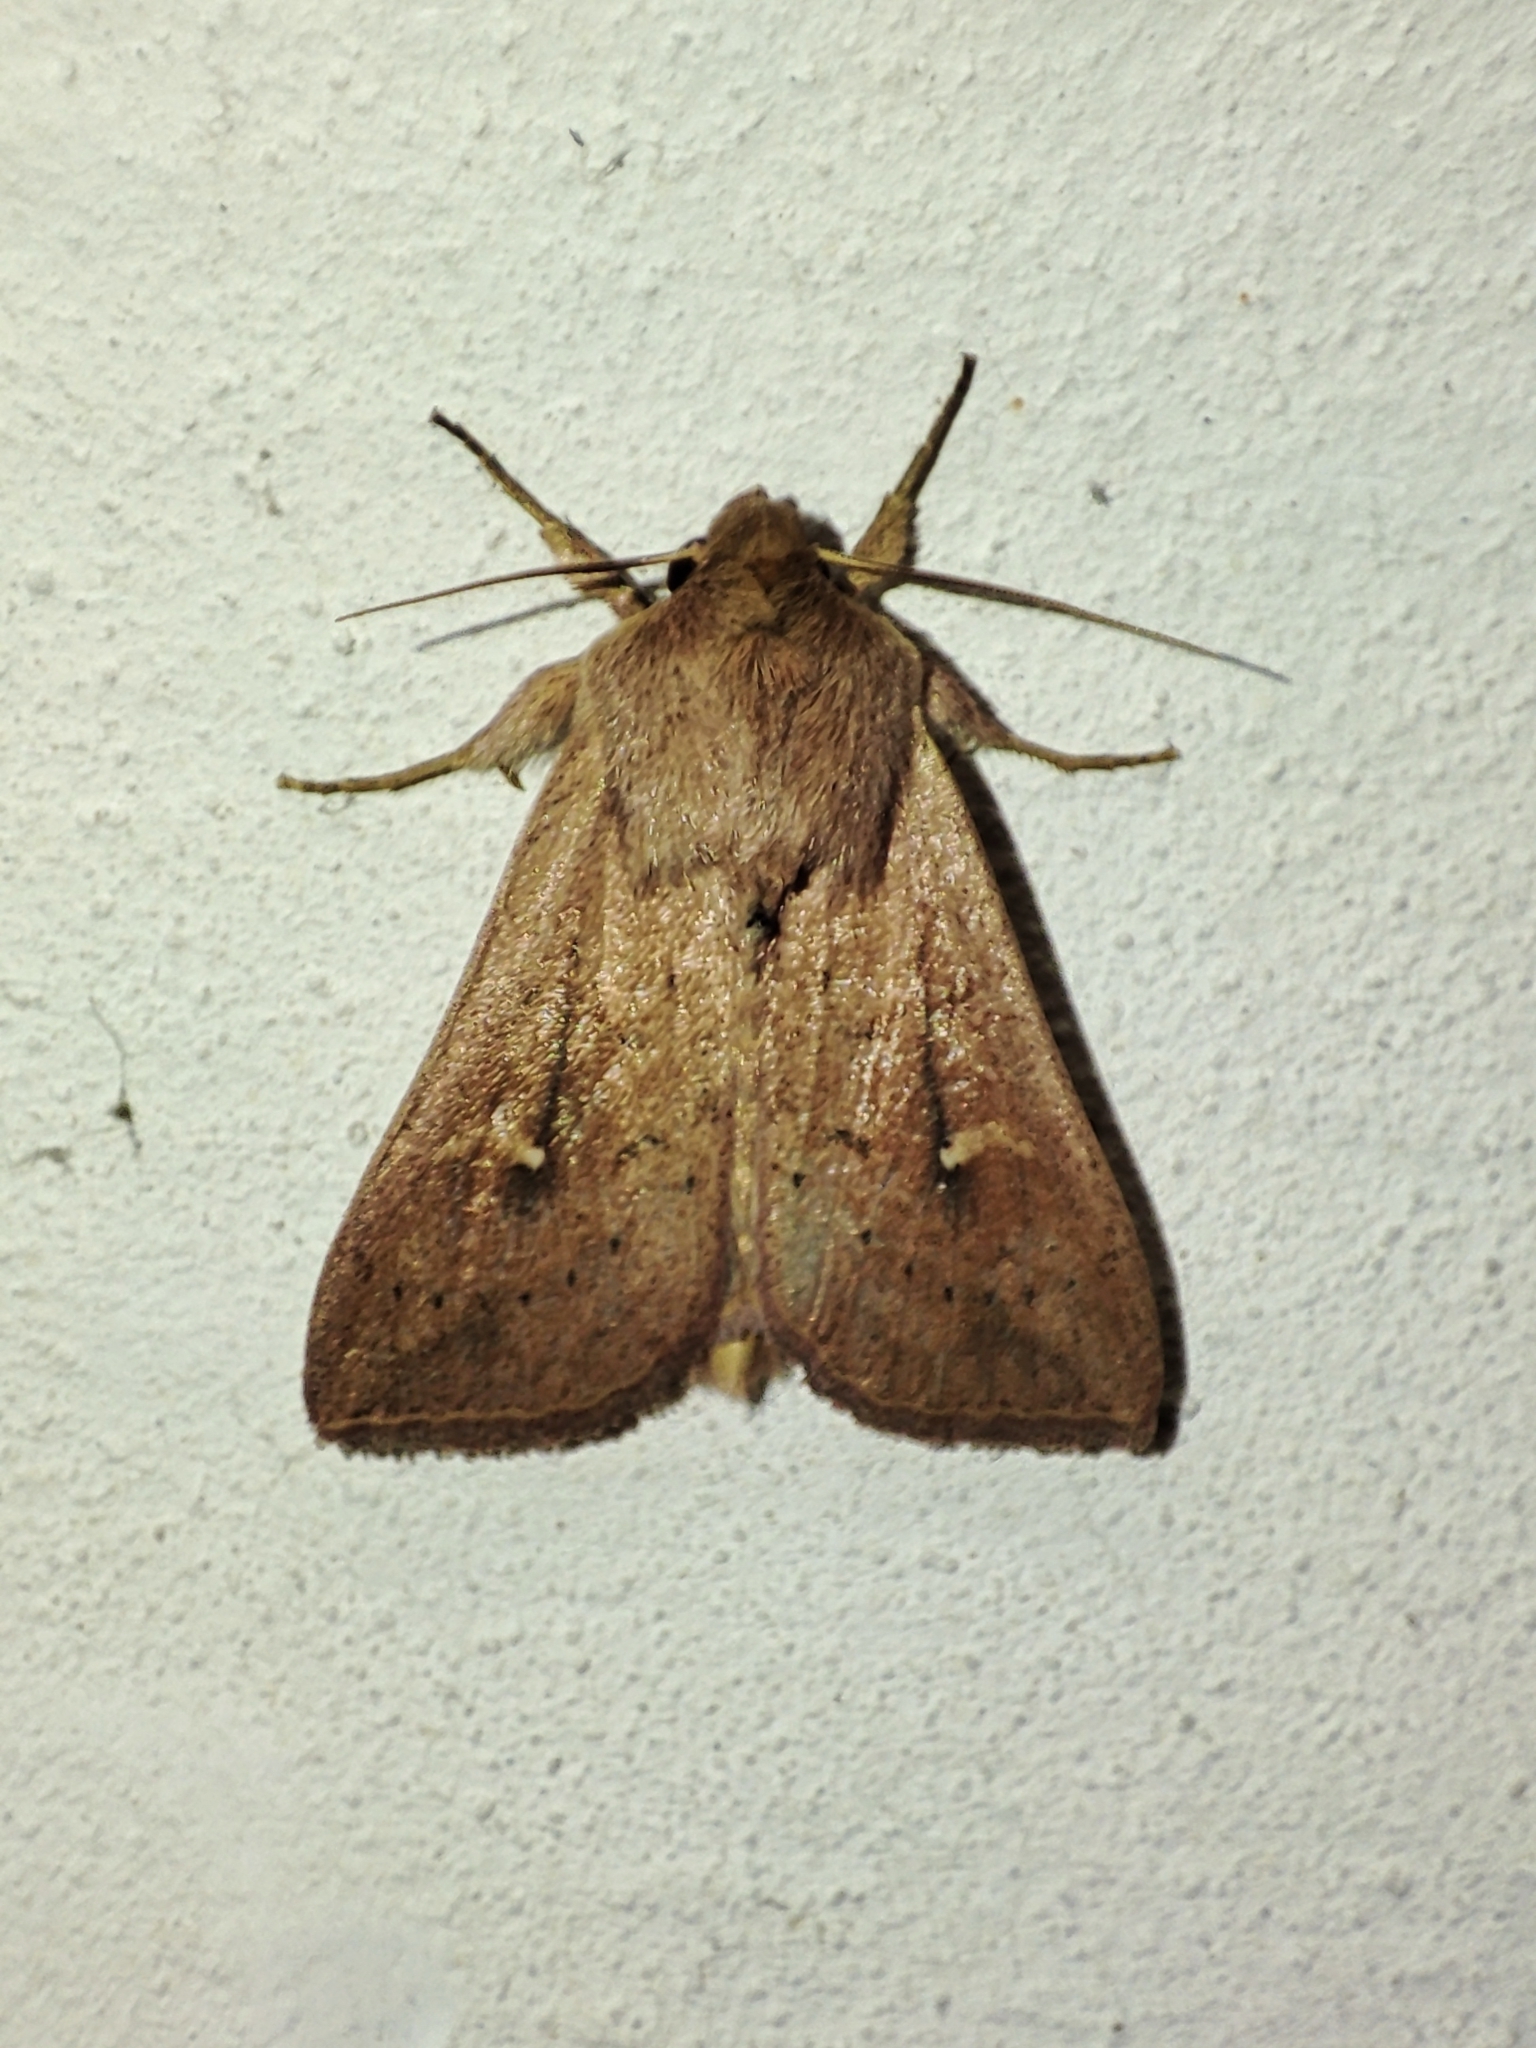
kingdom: Animalia
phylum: Arthropoda
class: Insecta
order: Lepidoptera
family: Noctuidae
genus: Mythimna
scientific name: Mythimna ferrago
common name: Clay
